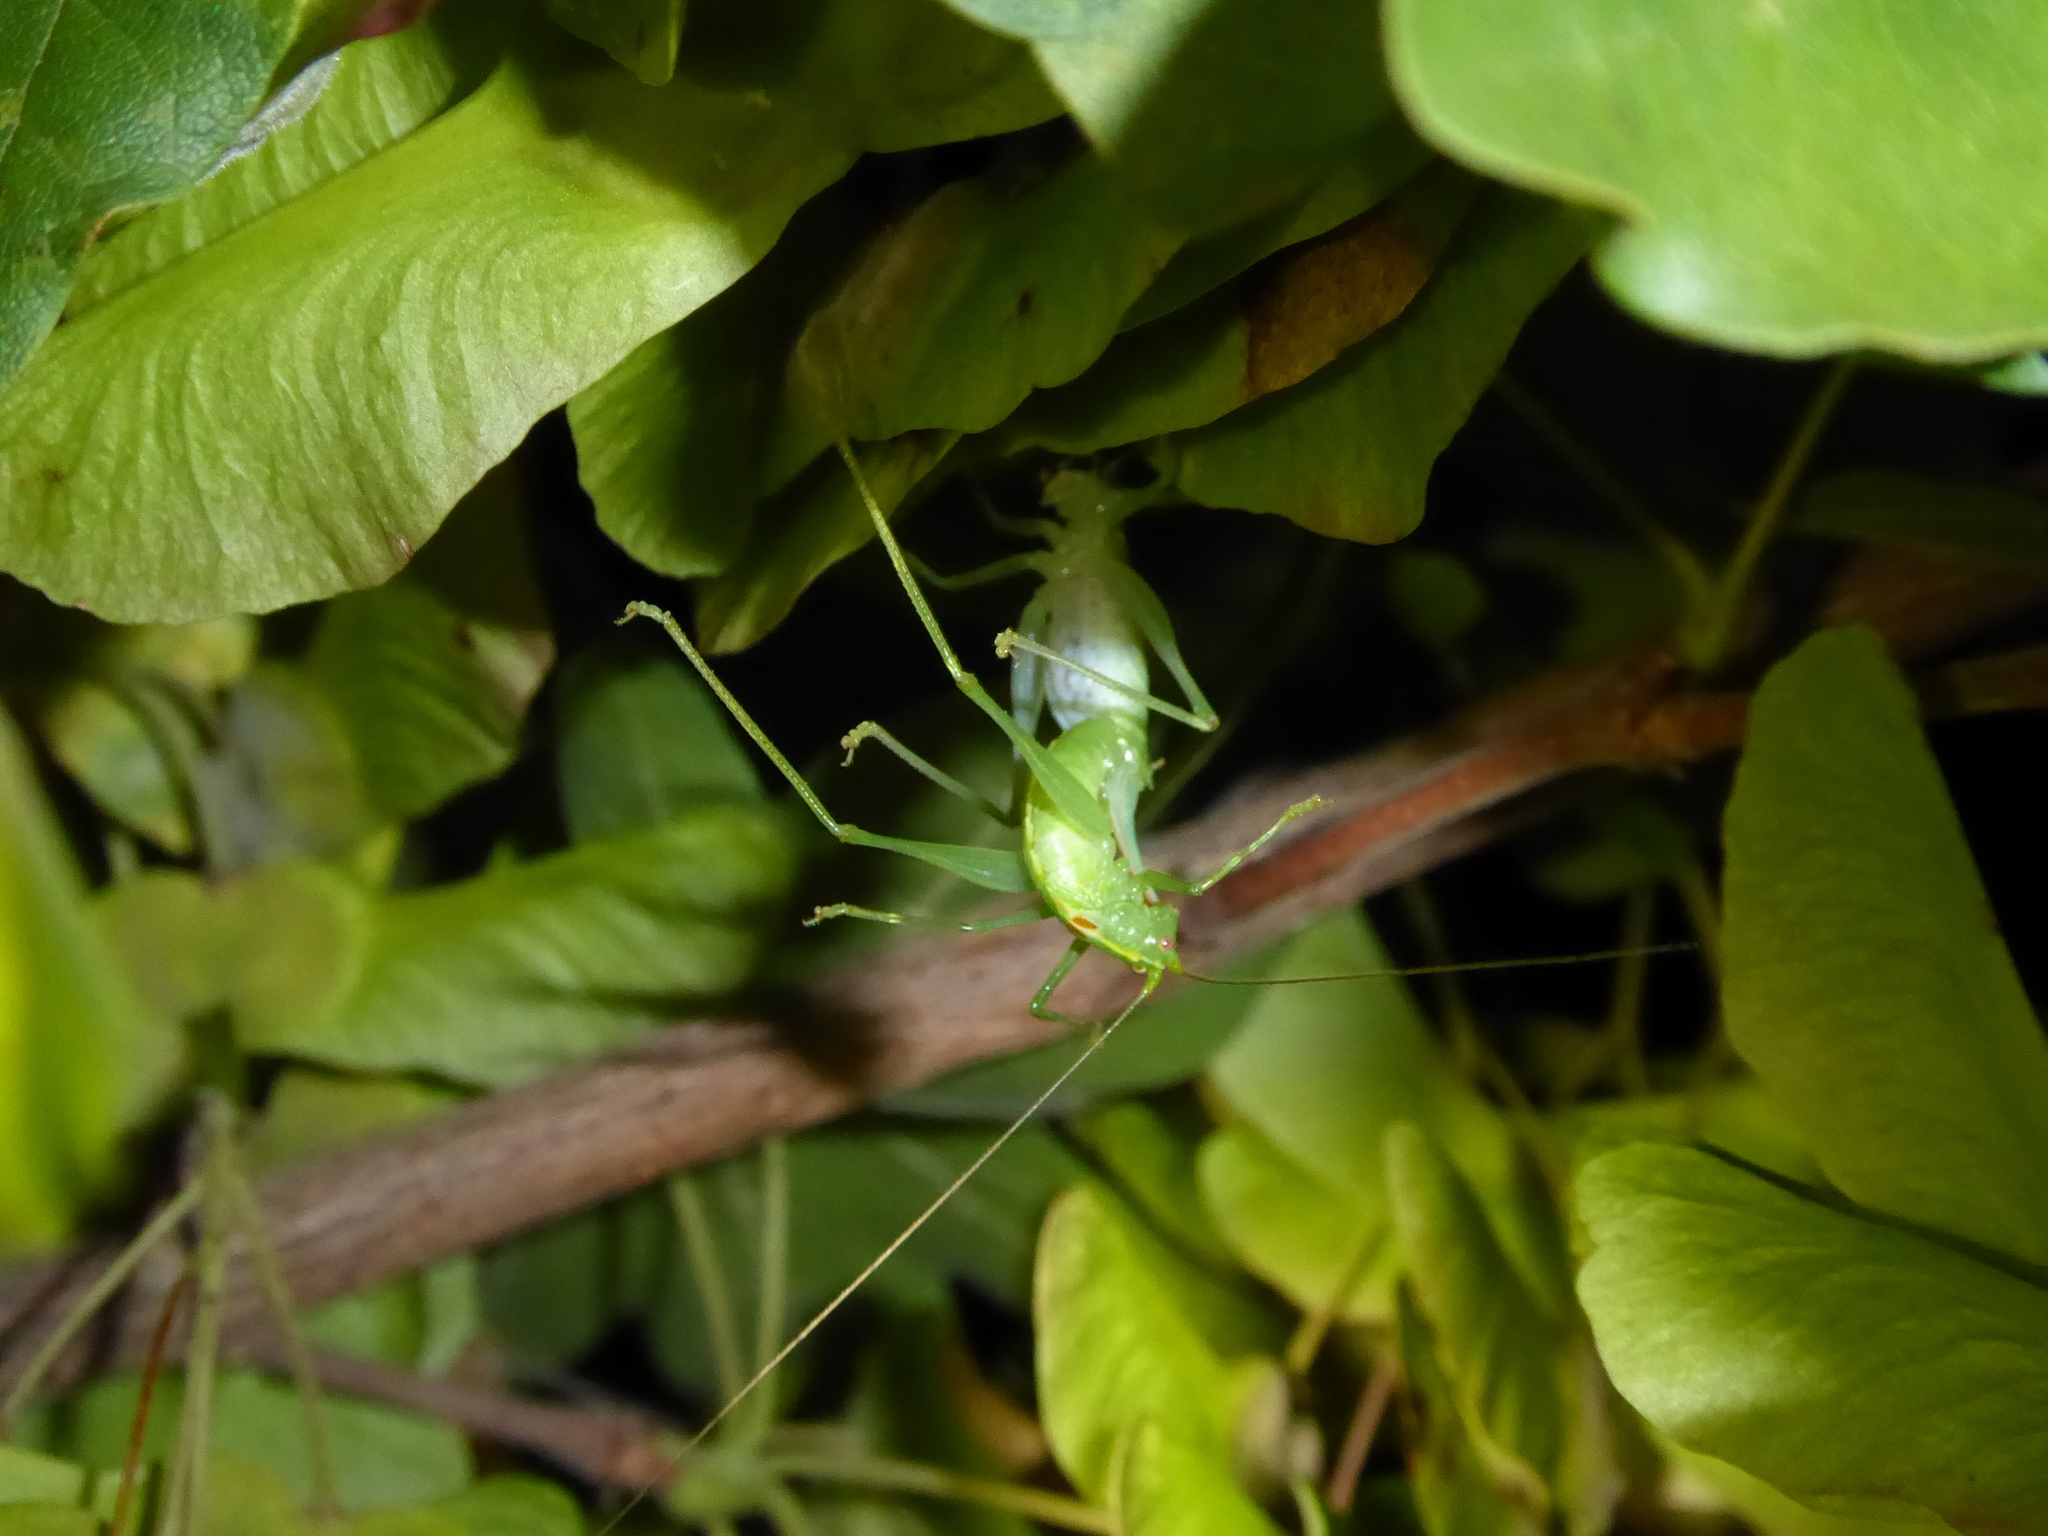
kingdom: Animalia
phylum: Arthropoda
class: Insecta
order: Orthoptera
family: Tettigoniidae
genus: Meconema
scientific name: Meconema meridionale
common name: Southern oak bush-cricket
